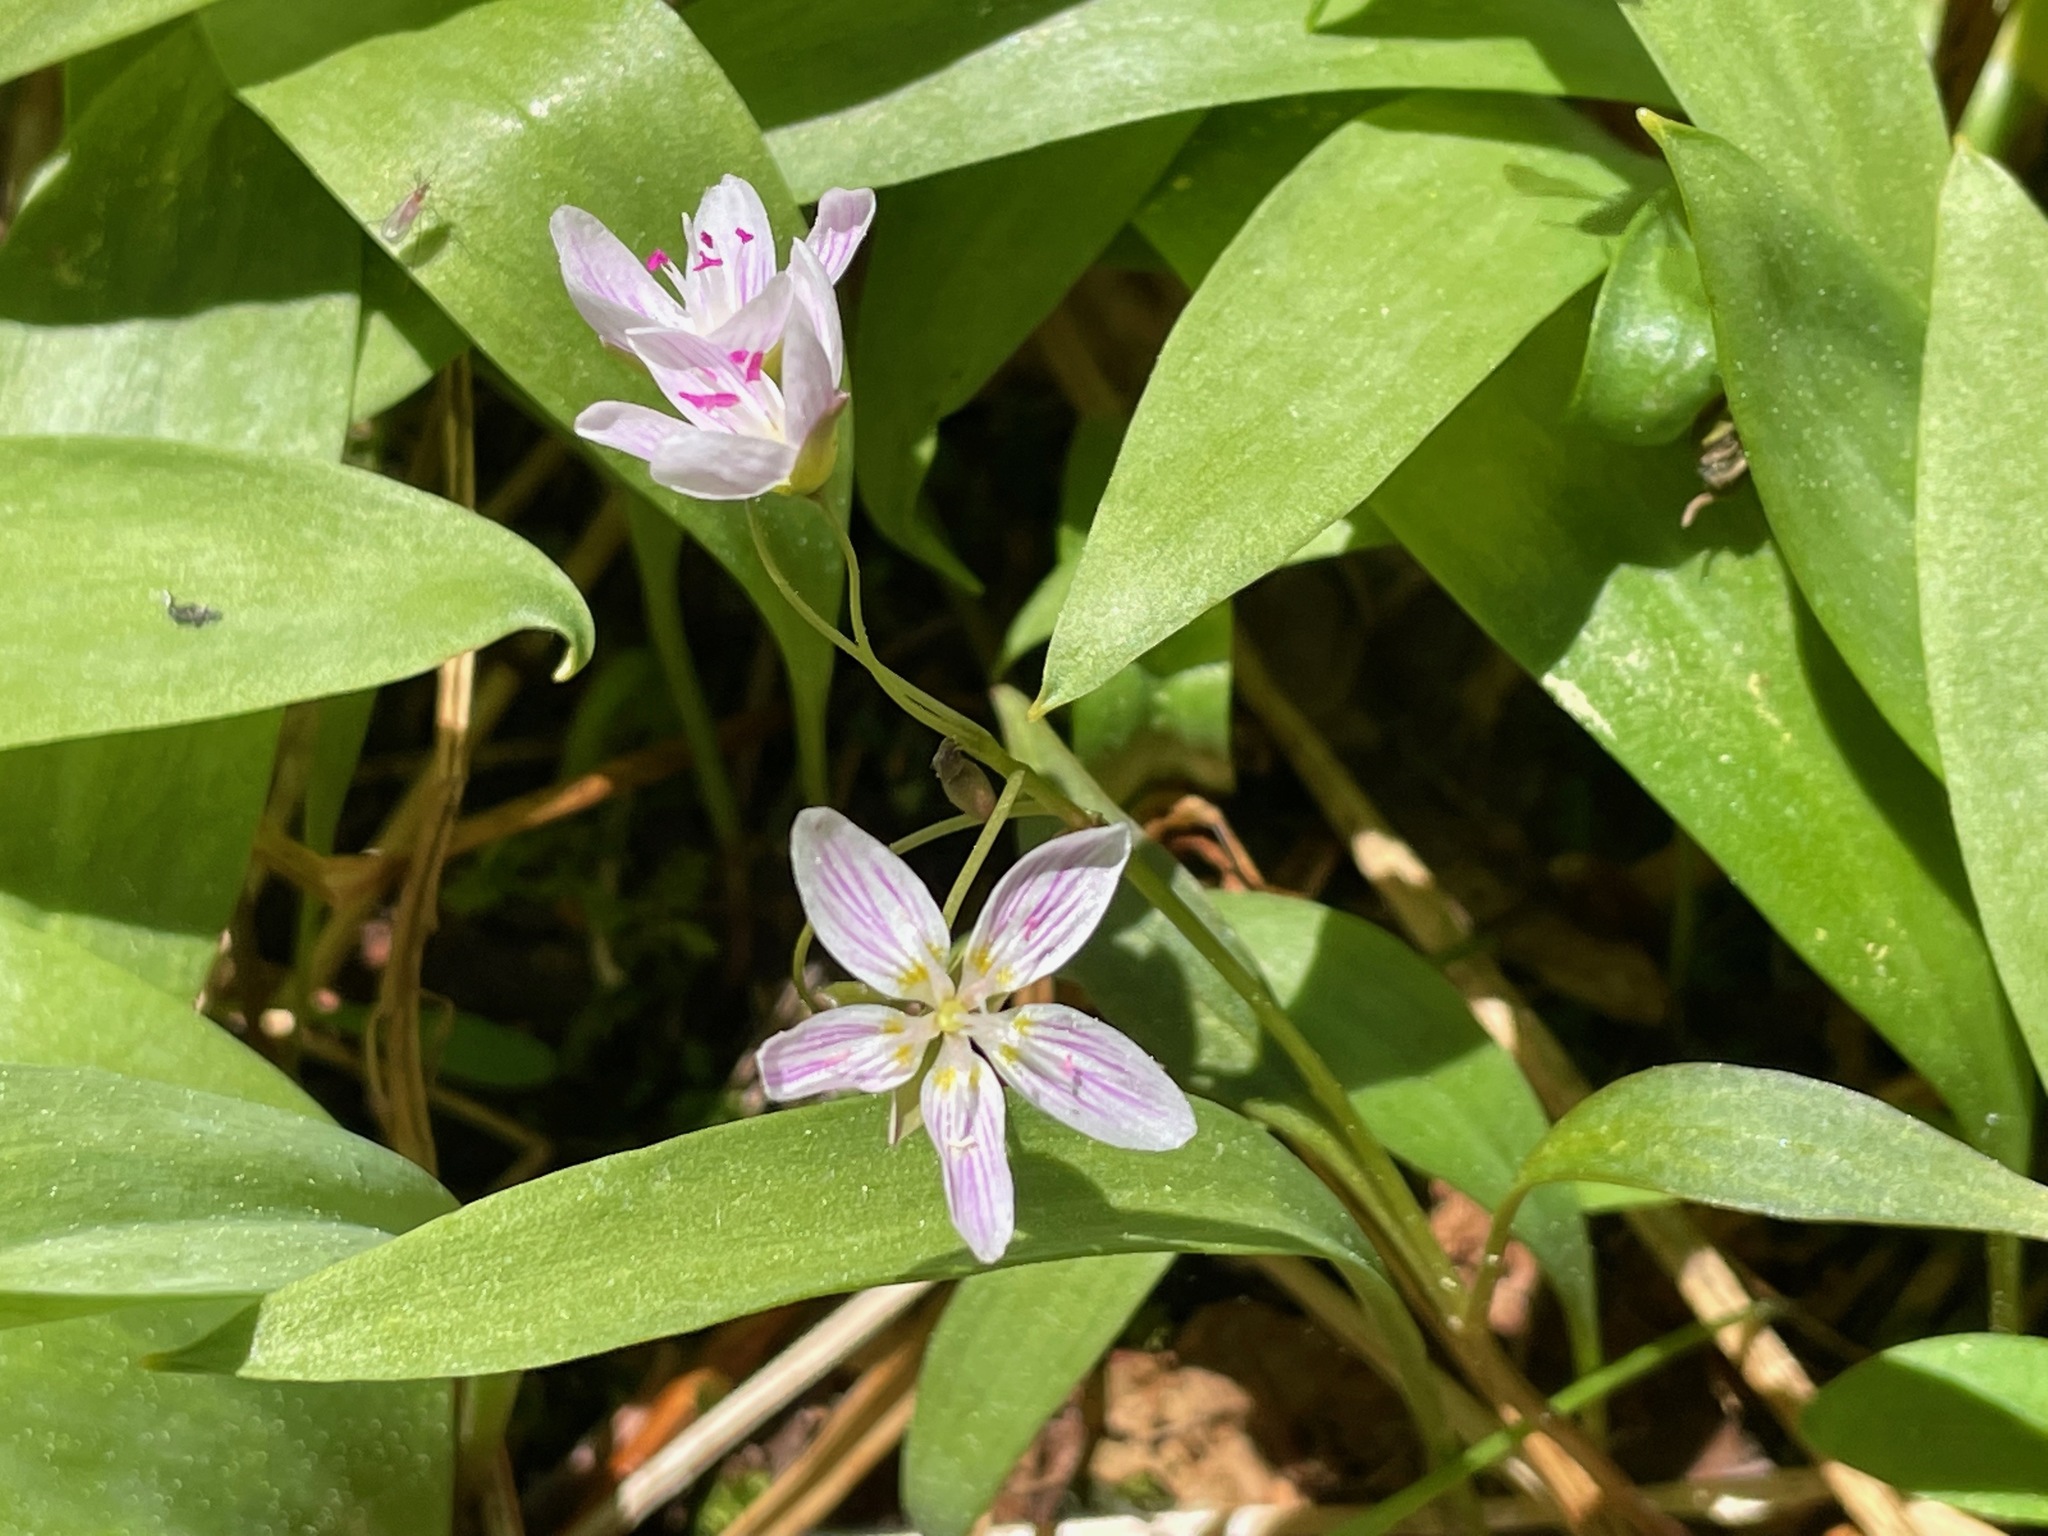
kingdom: Plantae
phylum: Tracheophyta
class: Magnoliopsida
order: Caryophyllales
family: Montiaceae
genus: Claytonia
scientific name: Claytonia caroliniana
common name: Carolina spring beauty
